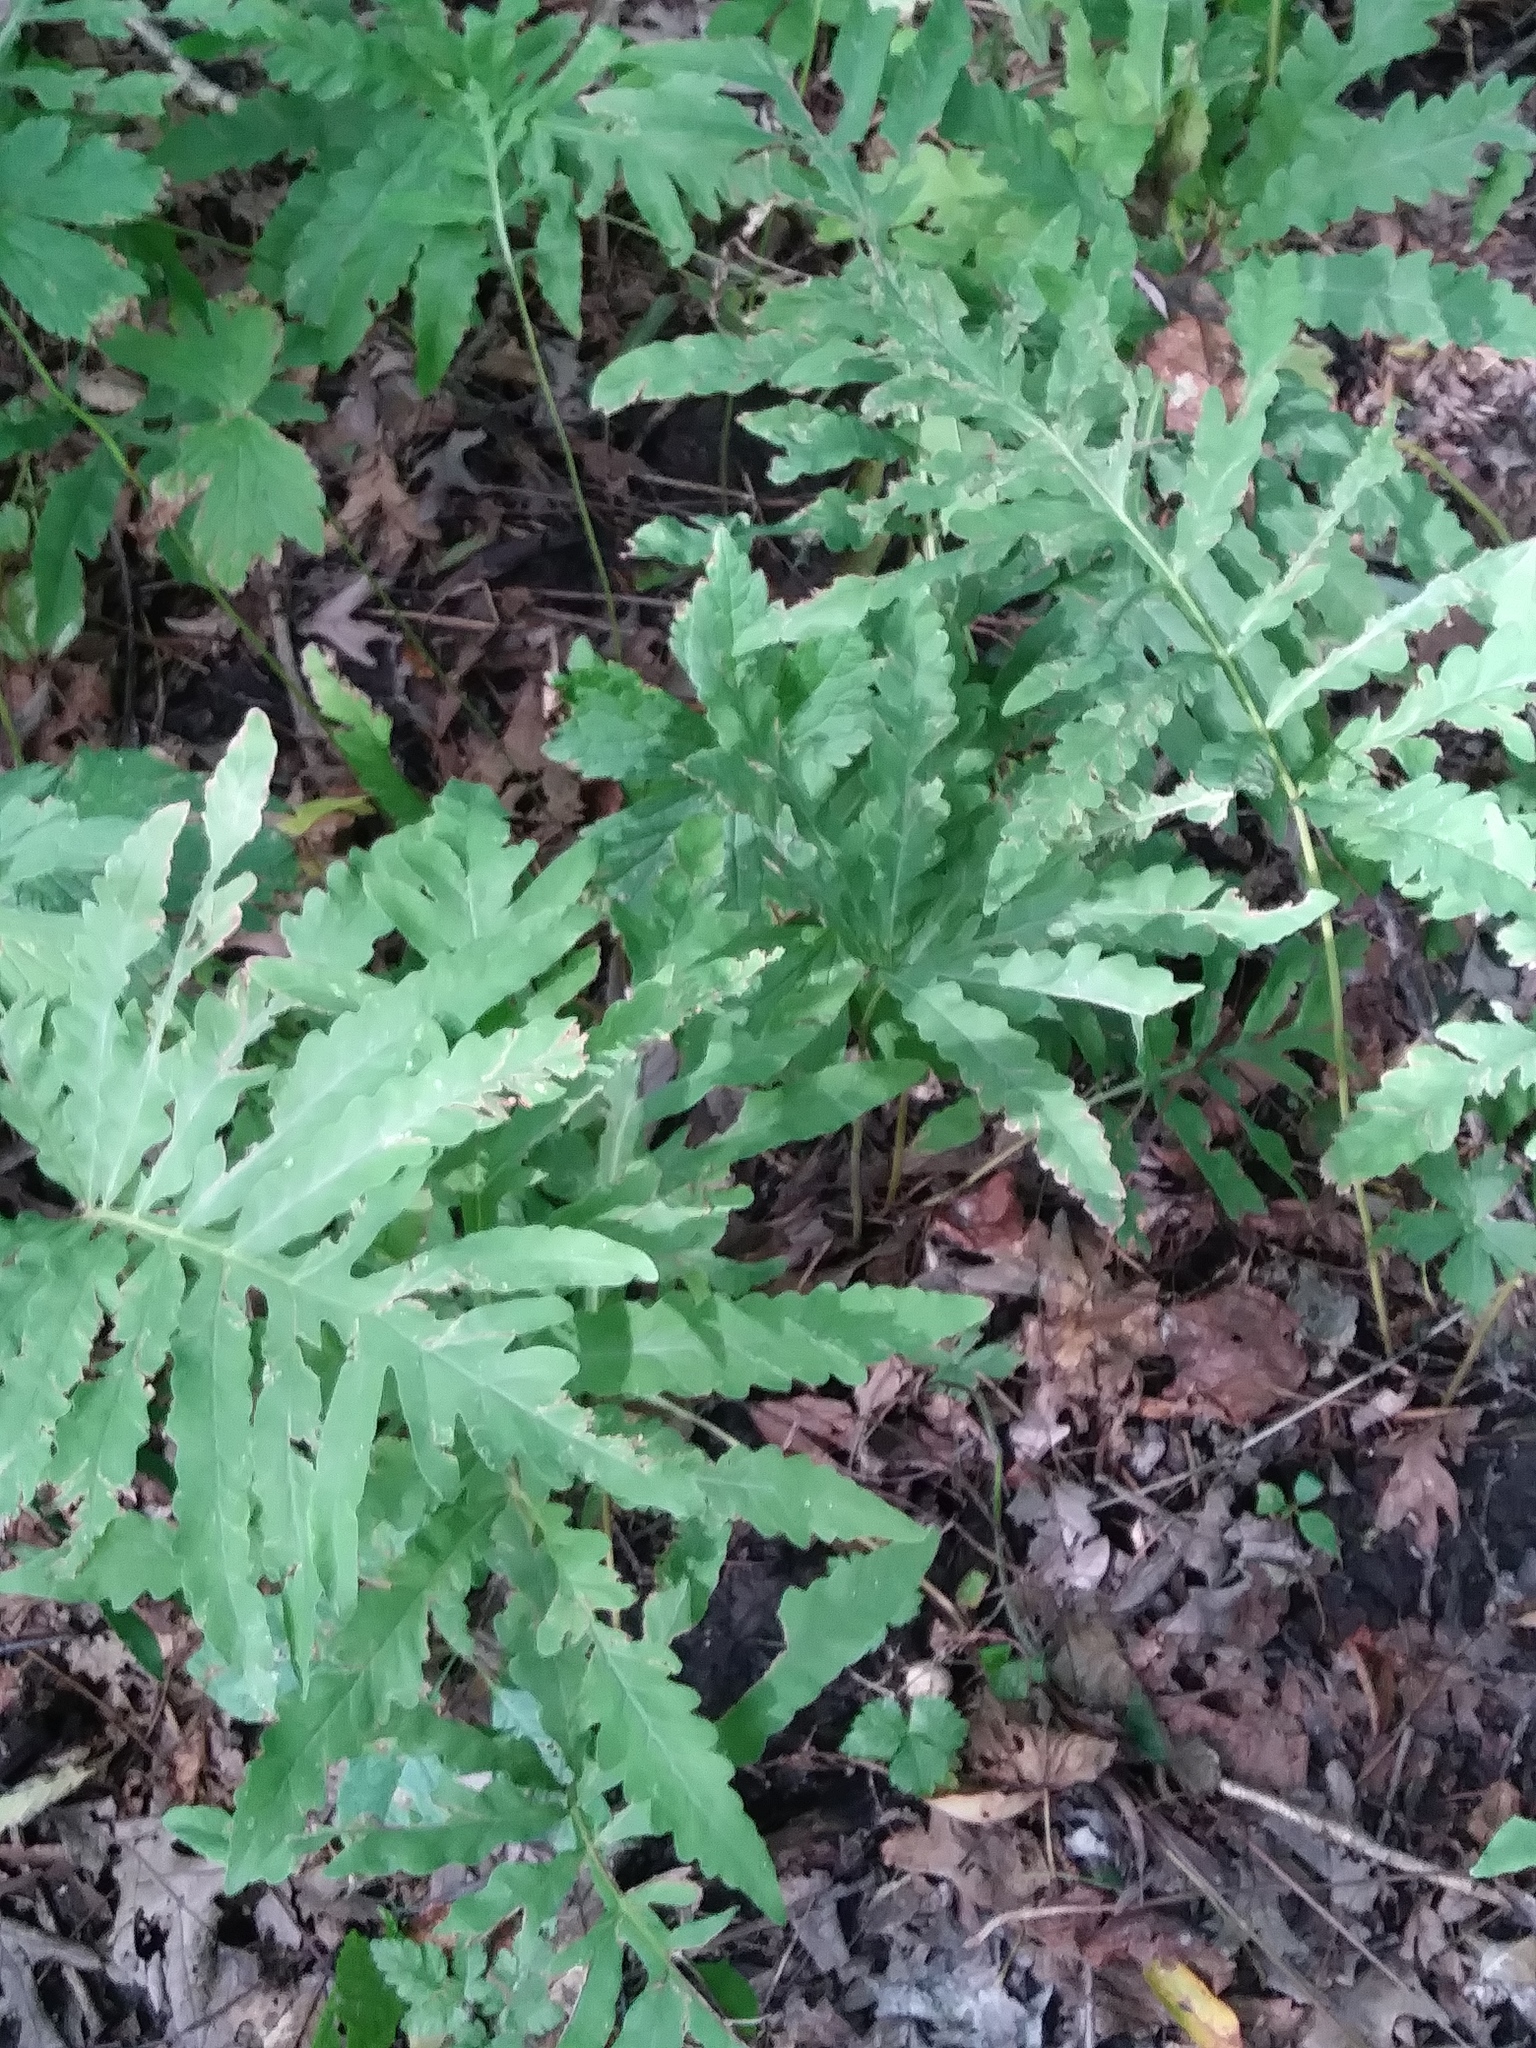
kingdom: Plantae
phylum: Tracheophyta
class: Polypodiopsida
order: Polypodiales
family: Onocleaceae
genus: Onoclea
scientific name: Onoclea sensibilis
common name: Sensitive fern
